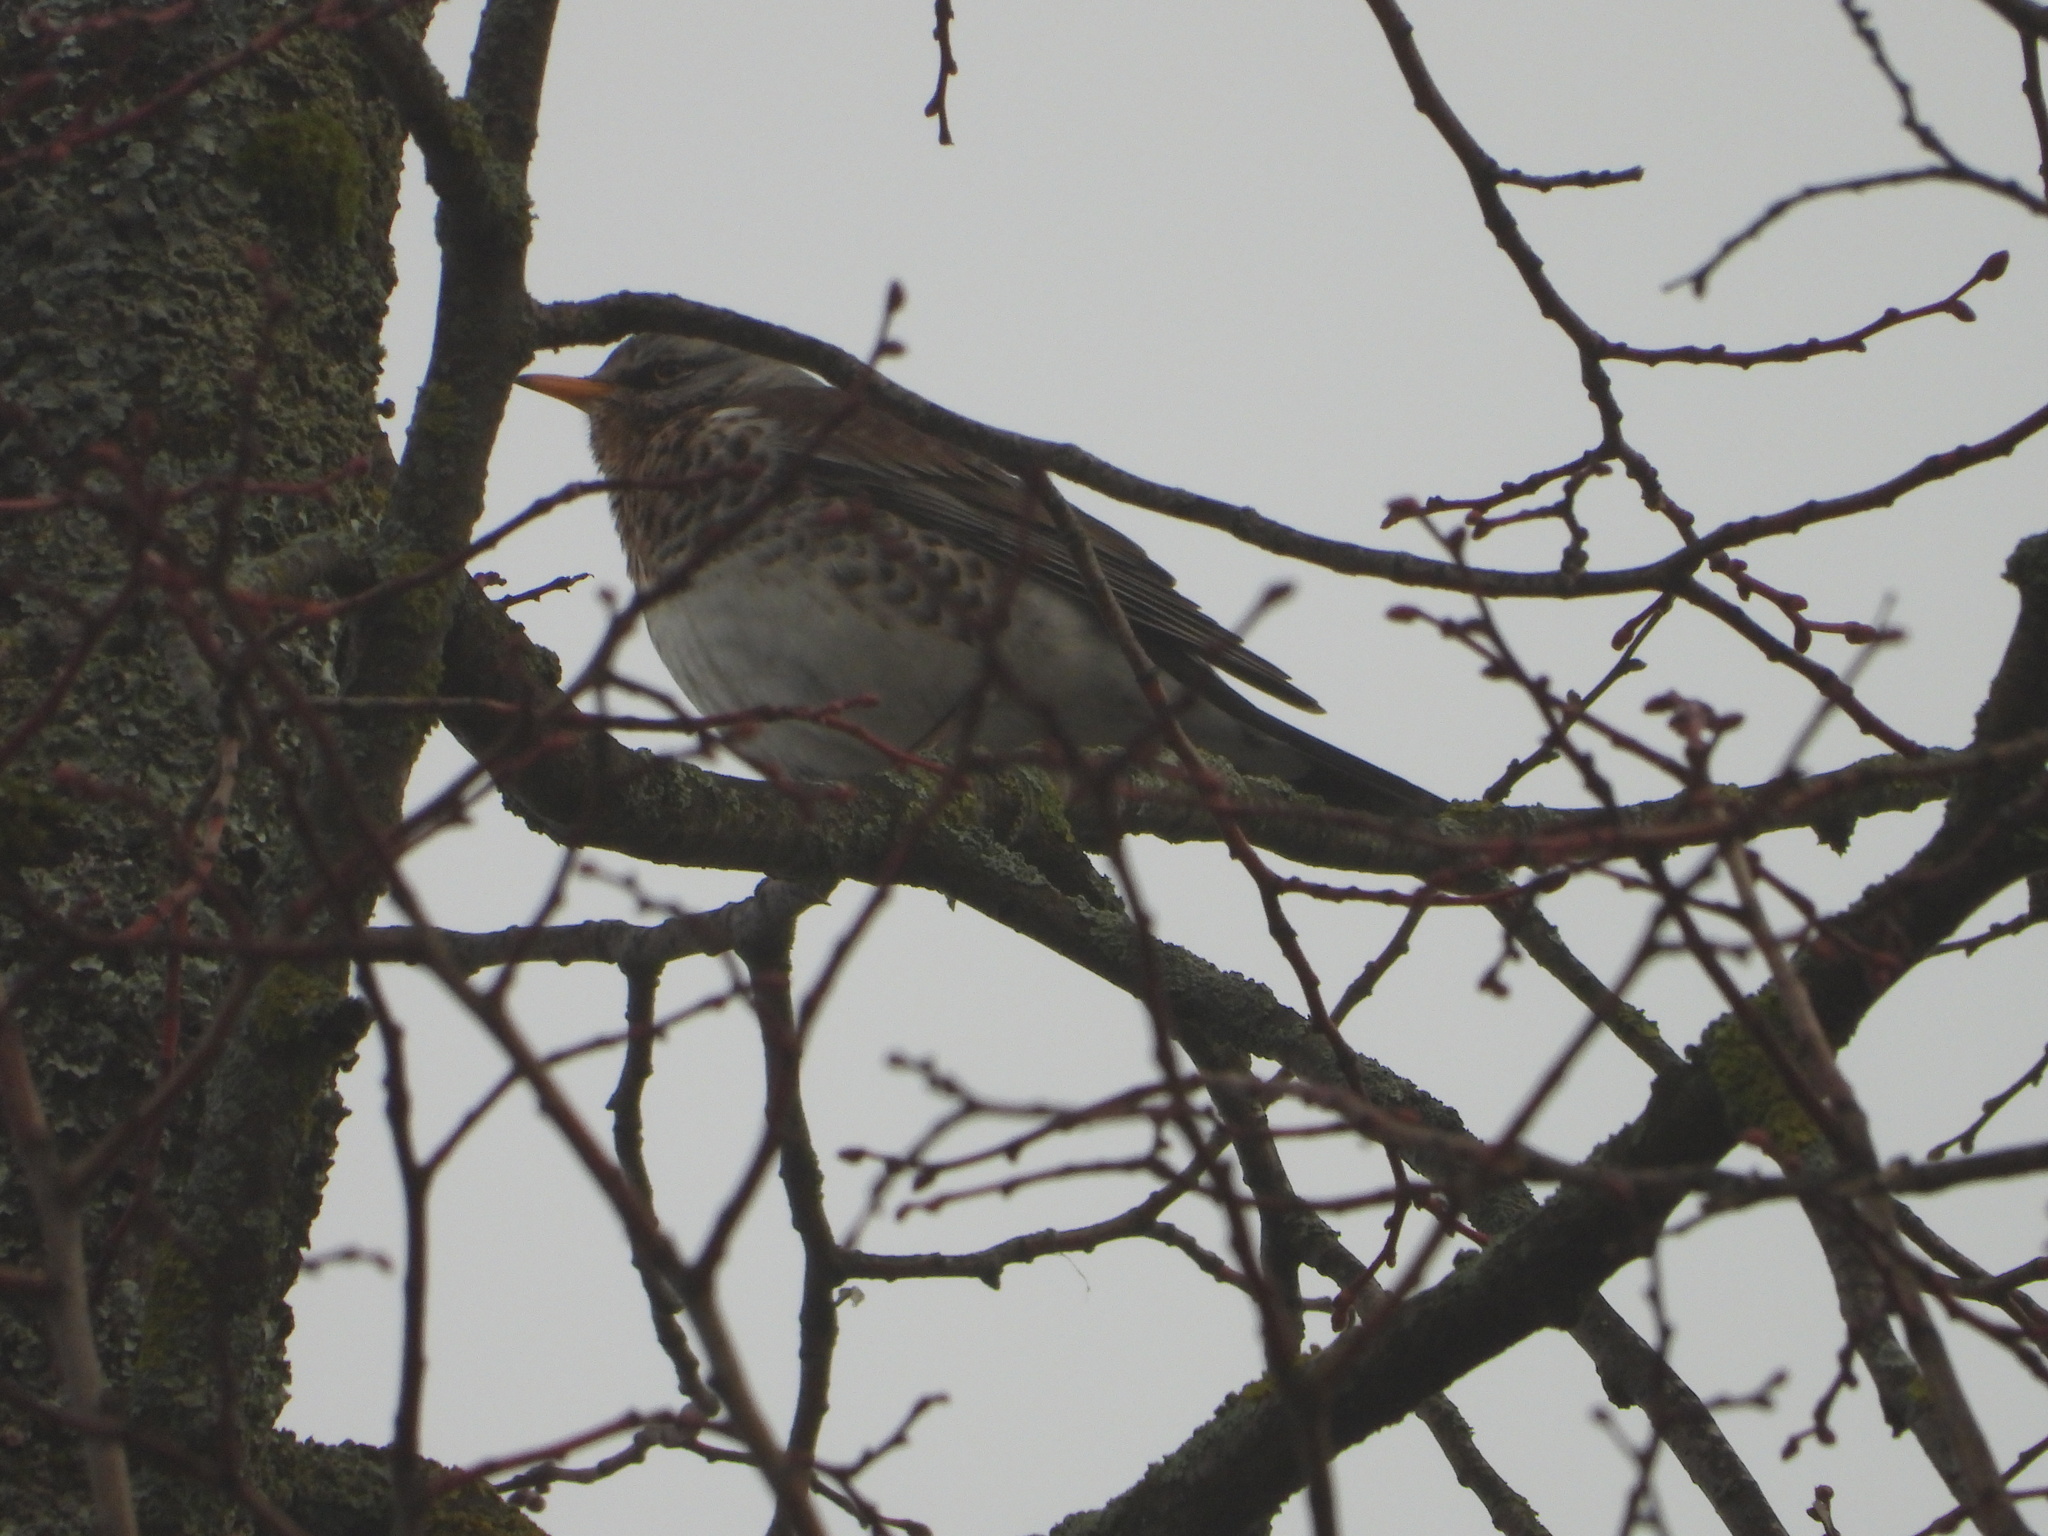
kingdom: Animalia
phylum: Chordata
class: Aves
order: Passeriformes
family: Turdidae
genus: Turdus
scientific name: Turdus pilaris
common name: Fieldfare
